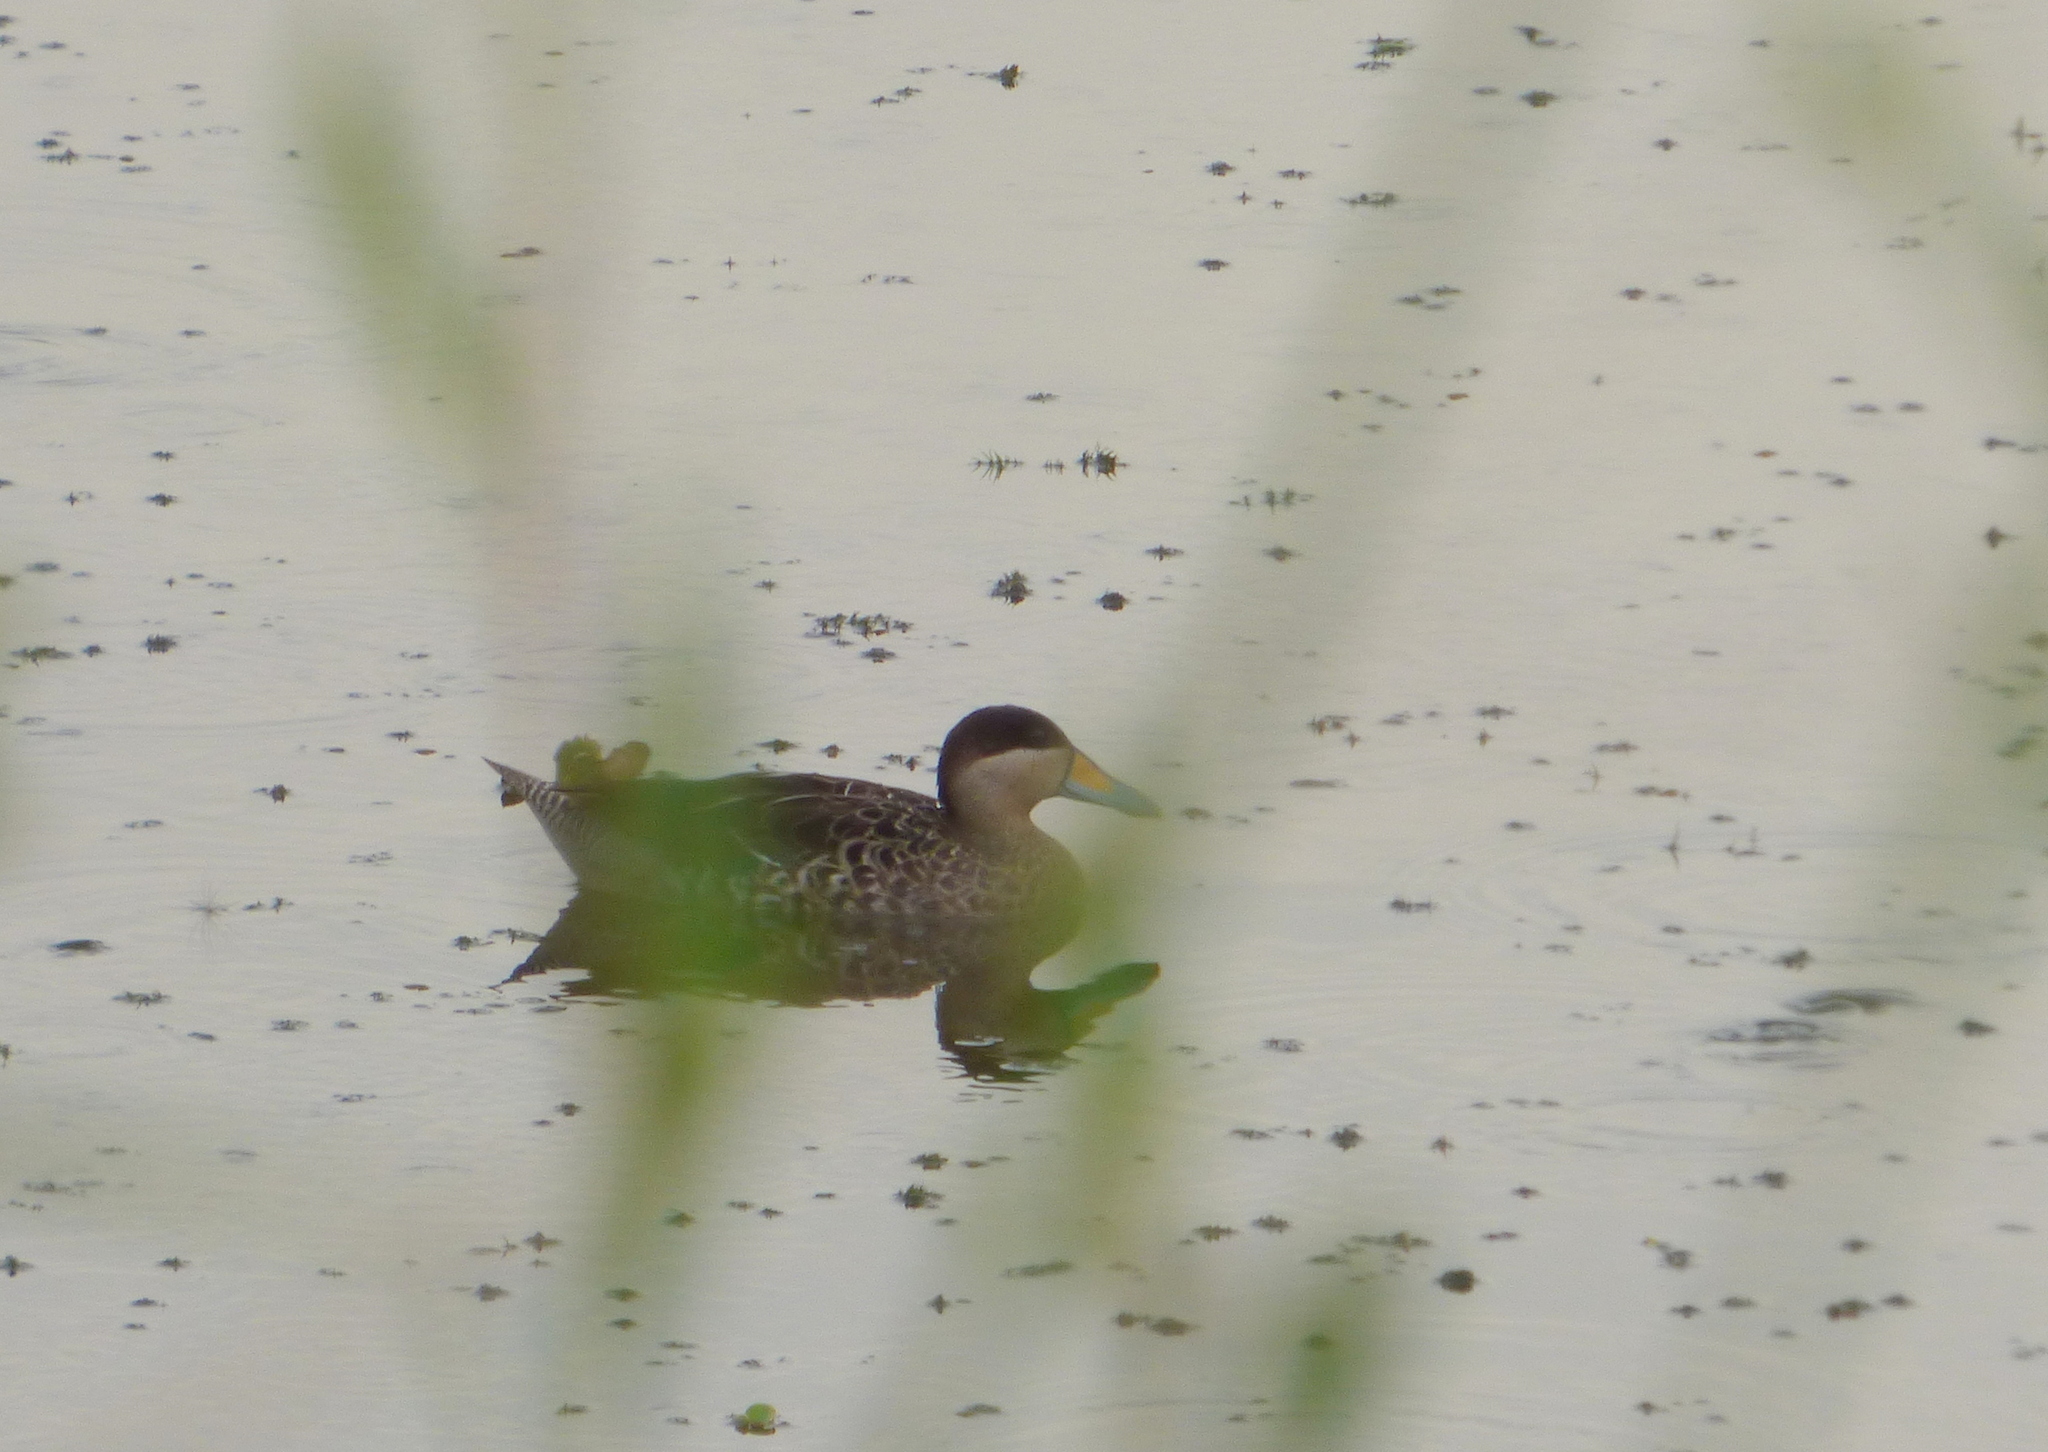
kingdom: Animalia
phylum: Chordata
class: Aves
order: Anseriformes
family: Anatidae
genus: Spatula
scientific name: Spatula versicolor
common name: Silver teal
